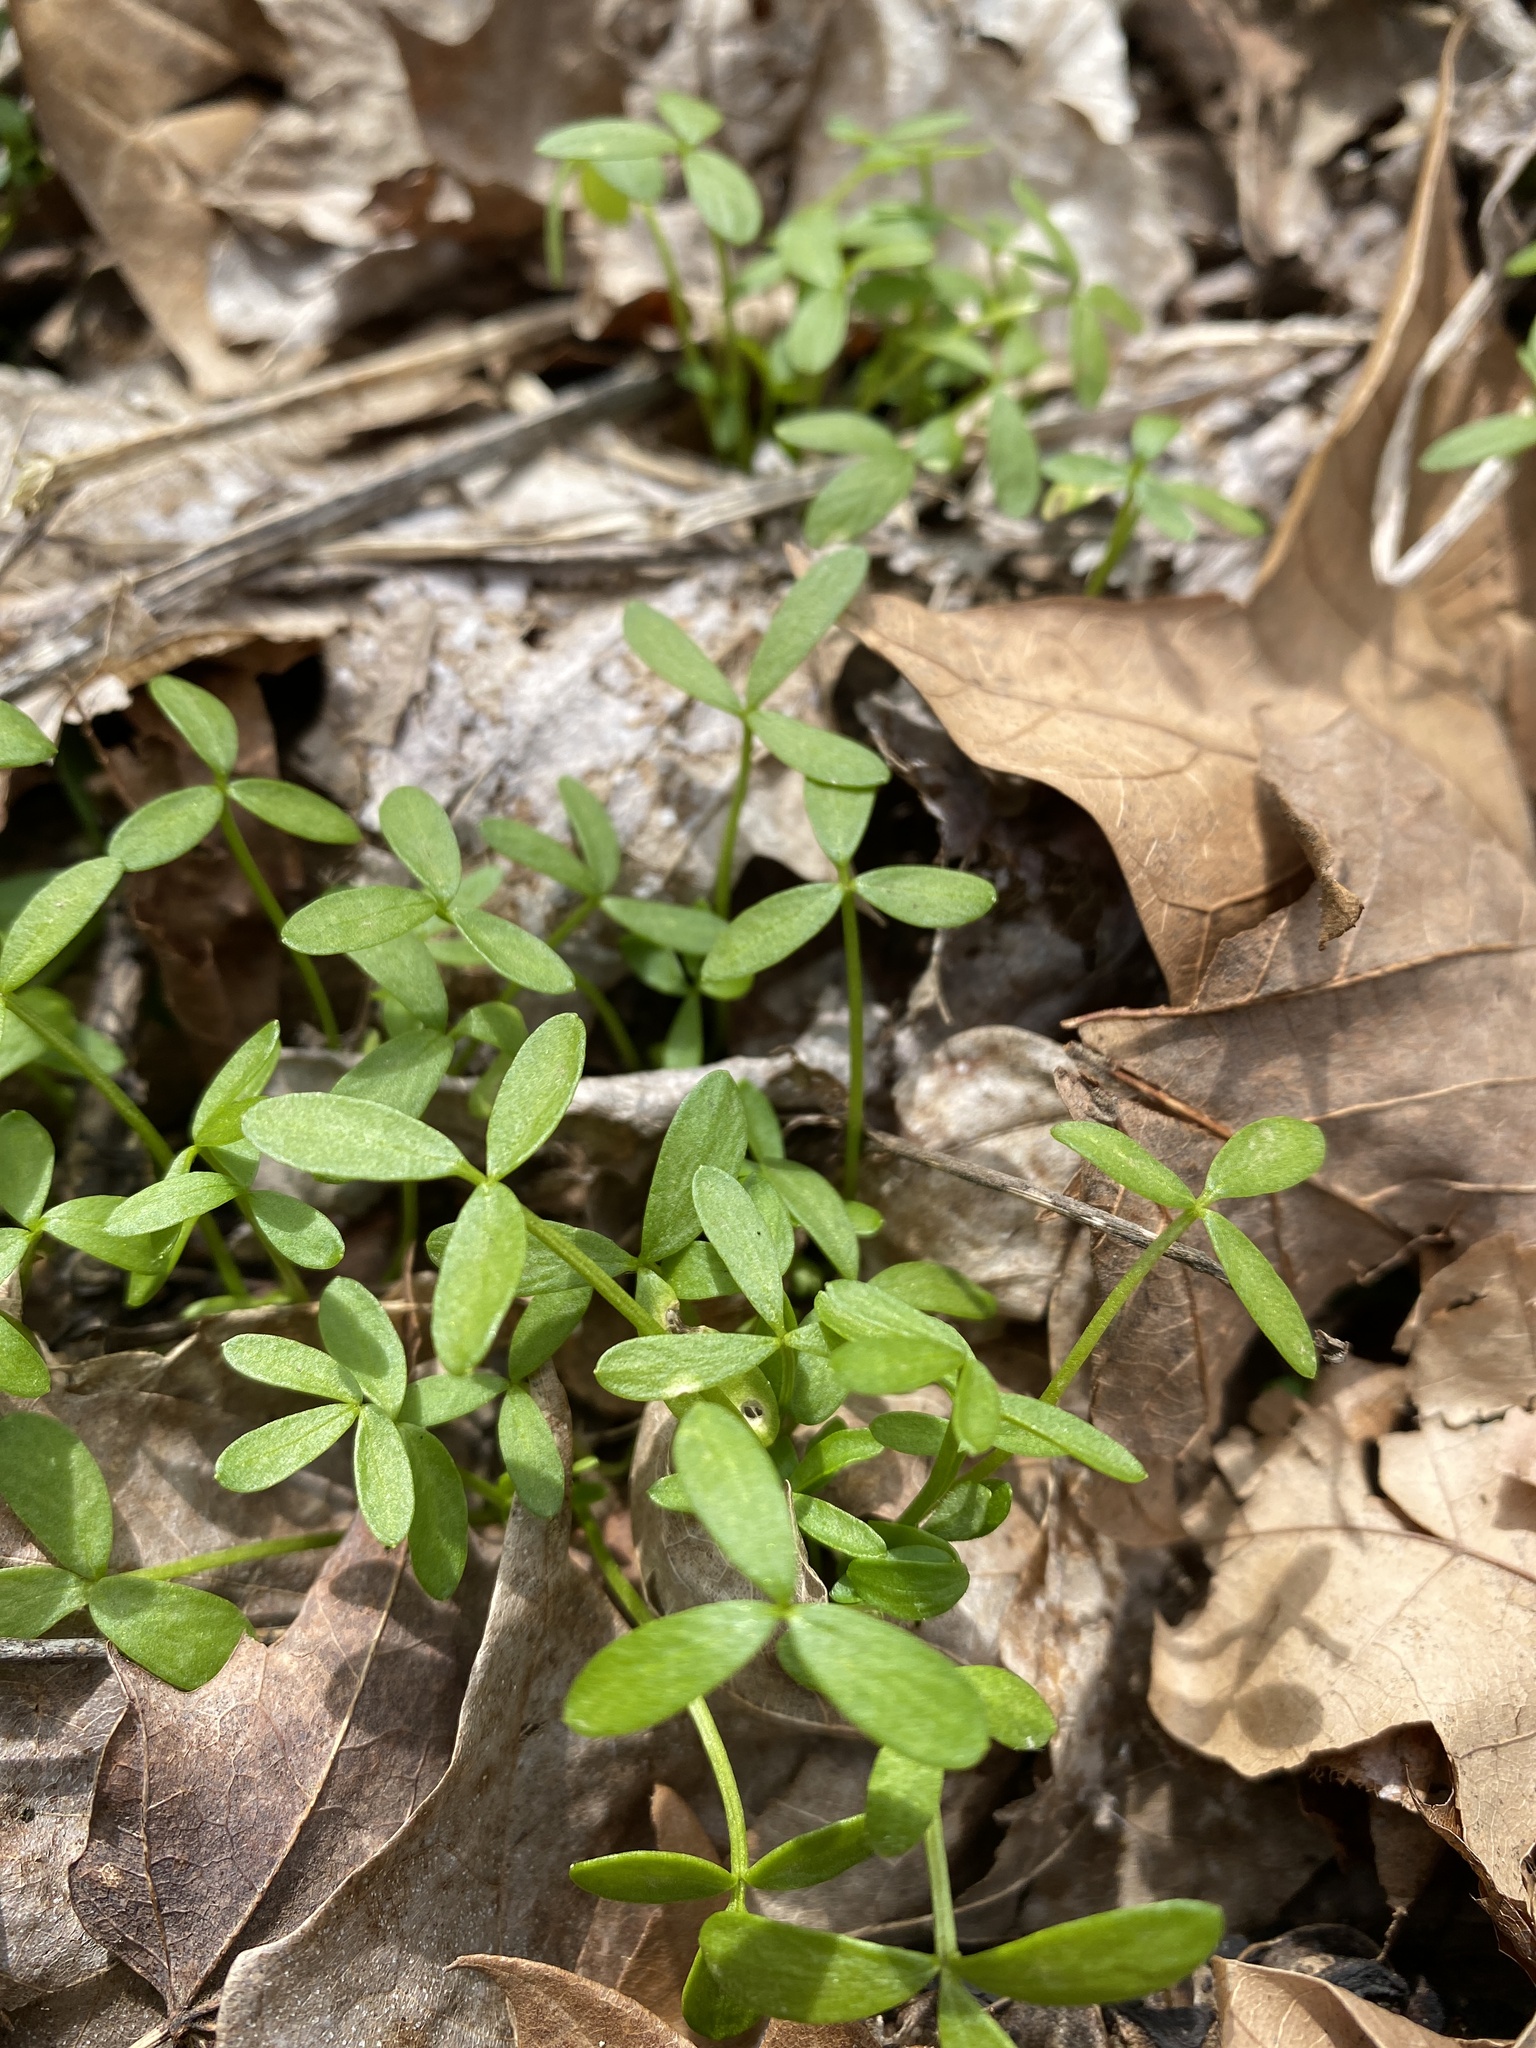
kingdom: Plantae
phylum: Tracheophyta
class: Magnoliopsida
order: Brassicales
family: Limnanthaceae
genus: Floerkea
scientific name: Floerkea proserpinacoides
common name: False mermaid
